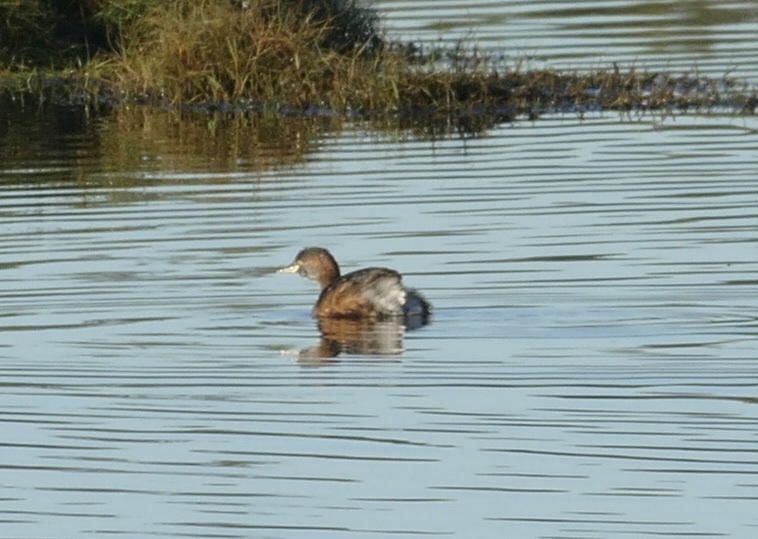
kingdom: Animalia
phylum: Chordata
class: Aves
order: Podicipediformes
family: Podicipedidae
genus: Tachybaptus
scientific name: Tachybaptus novaehollandiae
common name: Australasian grebe
